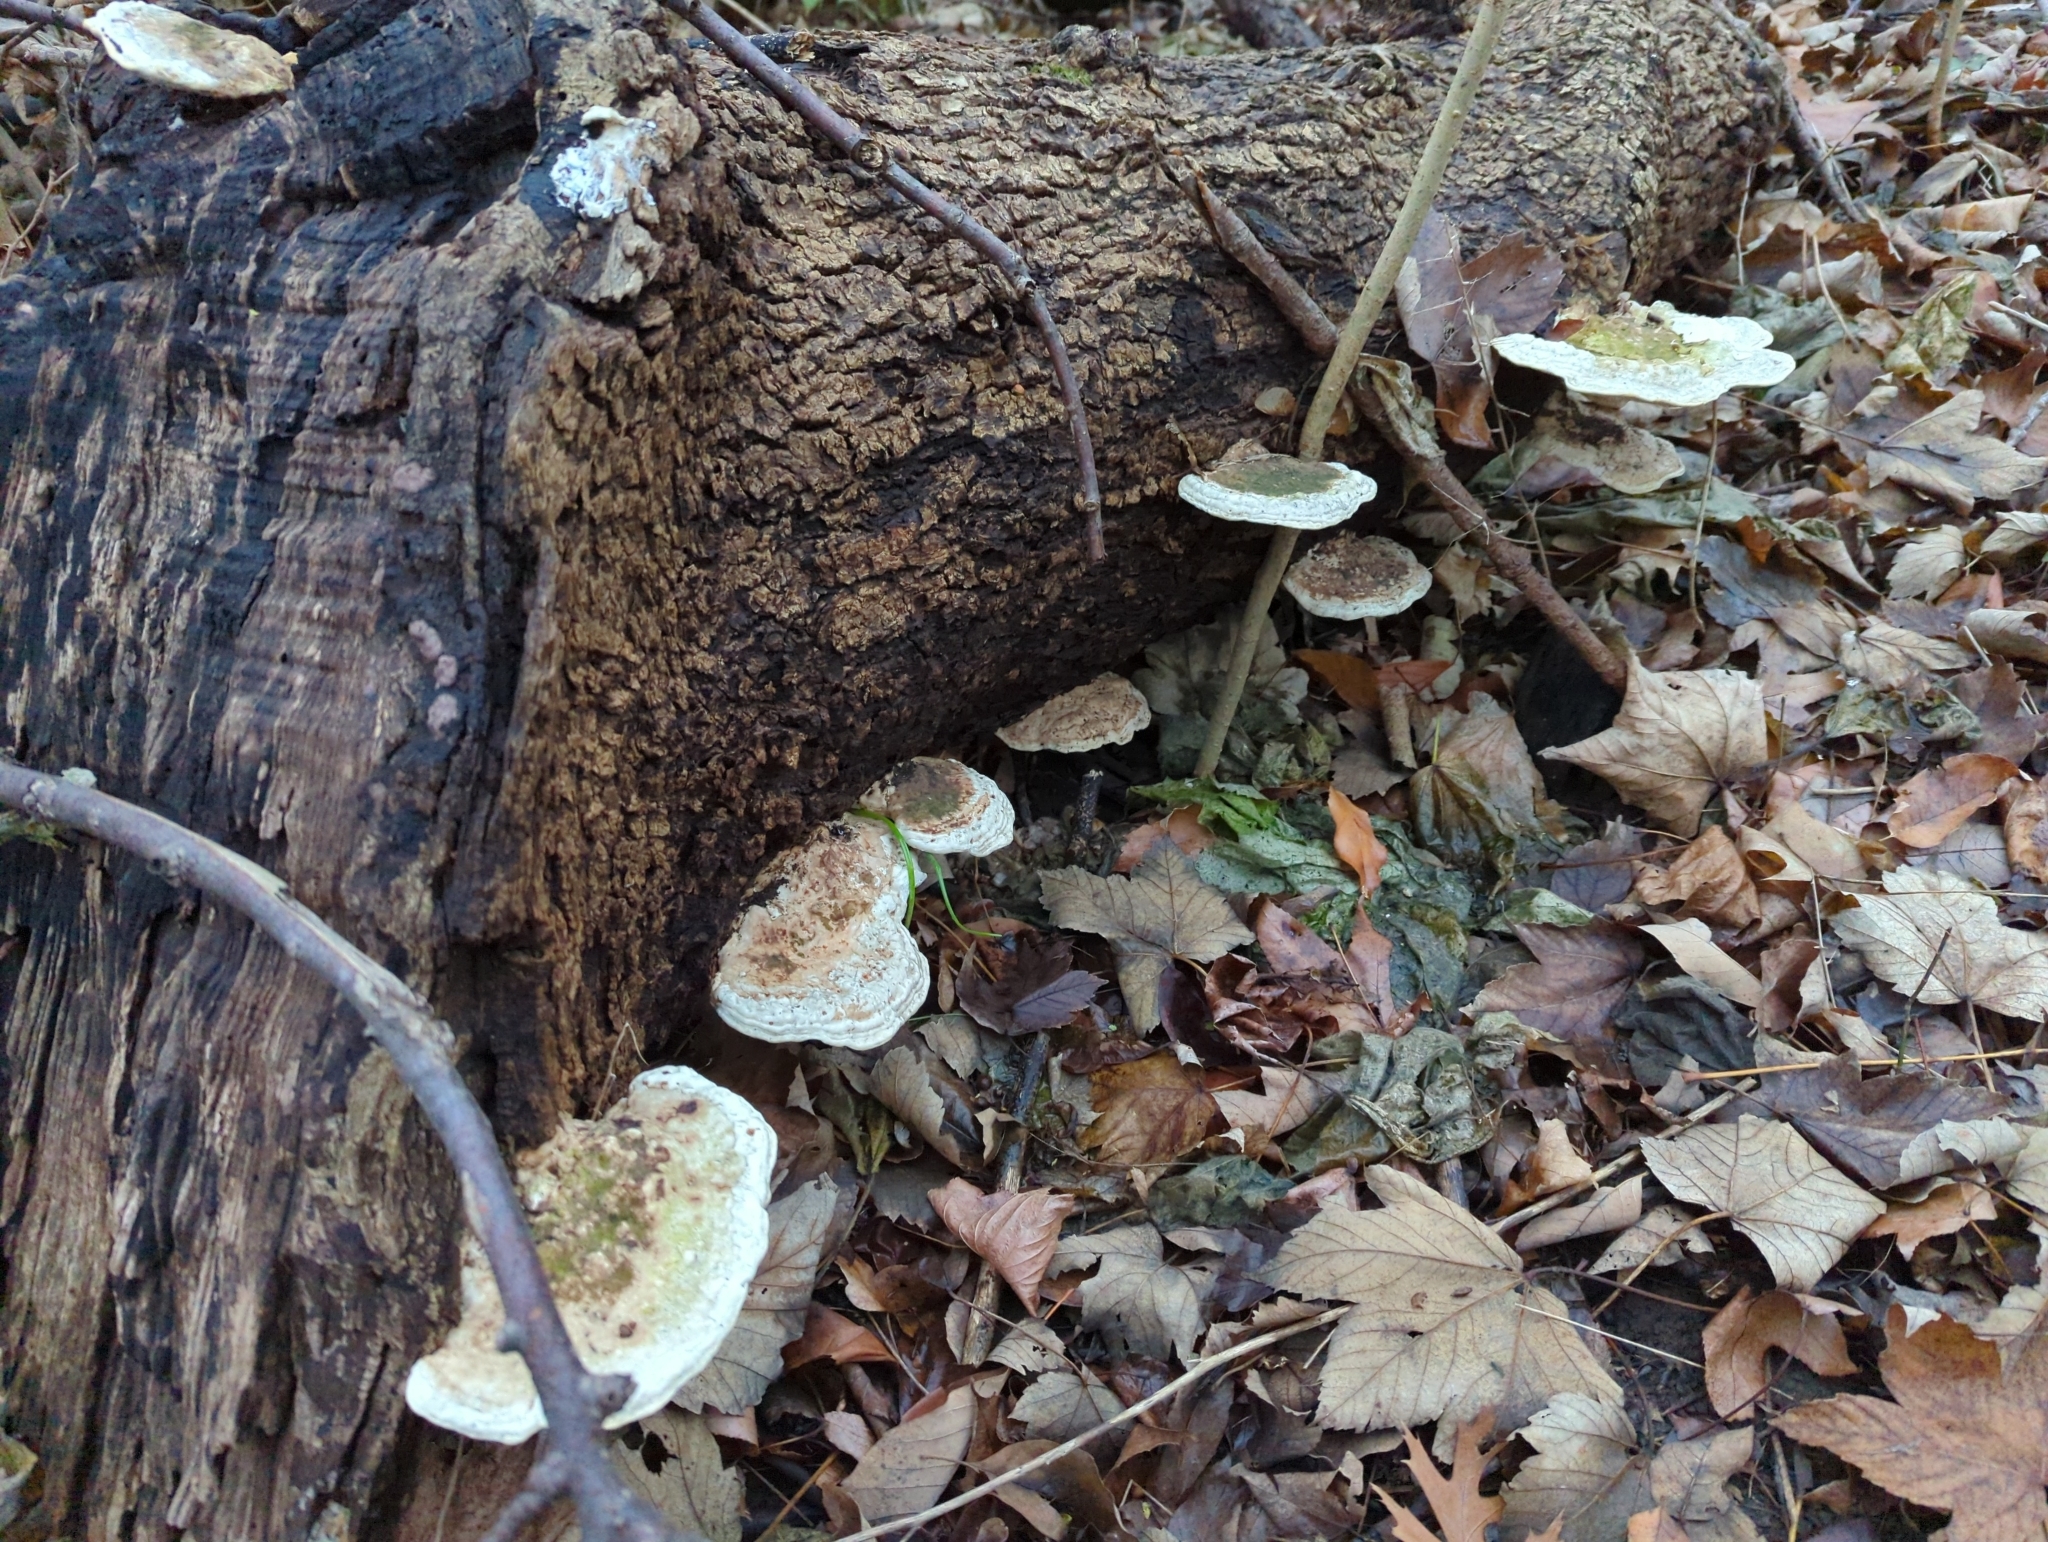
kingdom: Fungi
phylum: Basidiomycota
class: Agaricomycetes
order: Polyporales
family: Polyporaceae
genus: Trametes
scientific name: Trametes gibbosa
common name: Lumpy bracket
